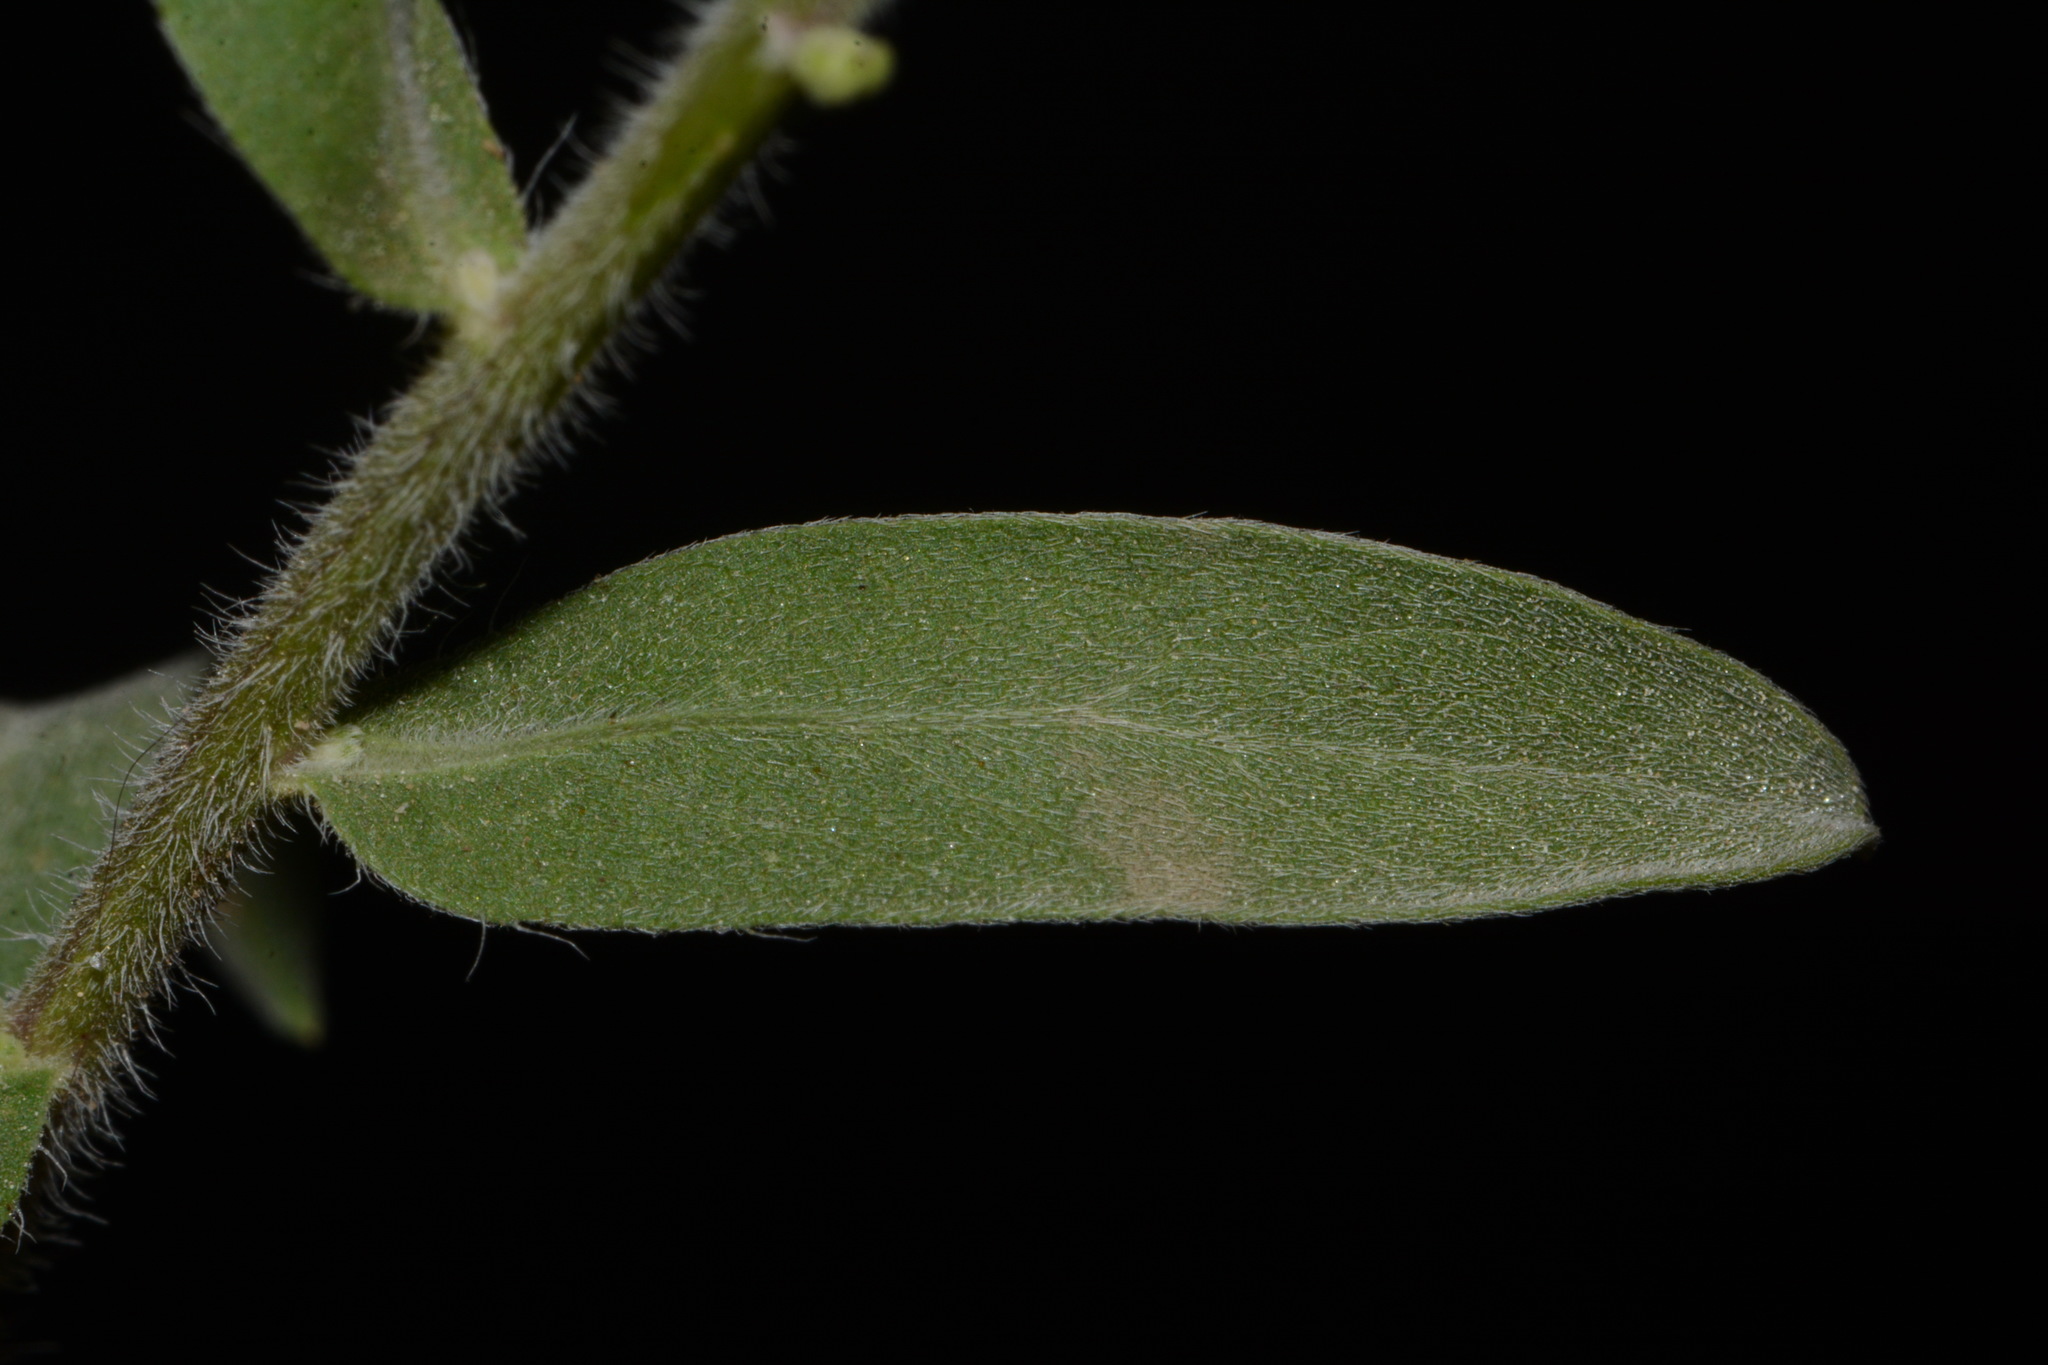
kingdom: Plantae
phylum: Tracheophyta
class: Magnoliopsida
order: Asterales
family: Asteraceae
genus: Heterotheca
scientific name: Heterotheca fulciens
